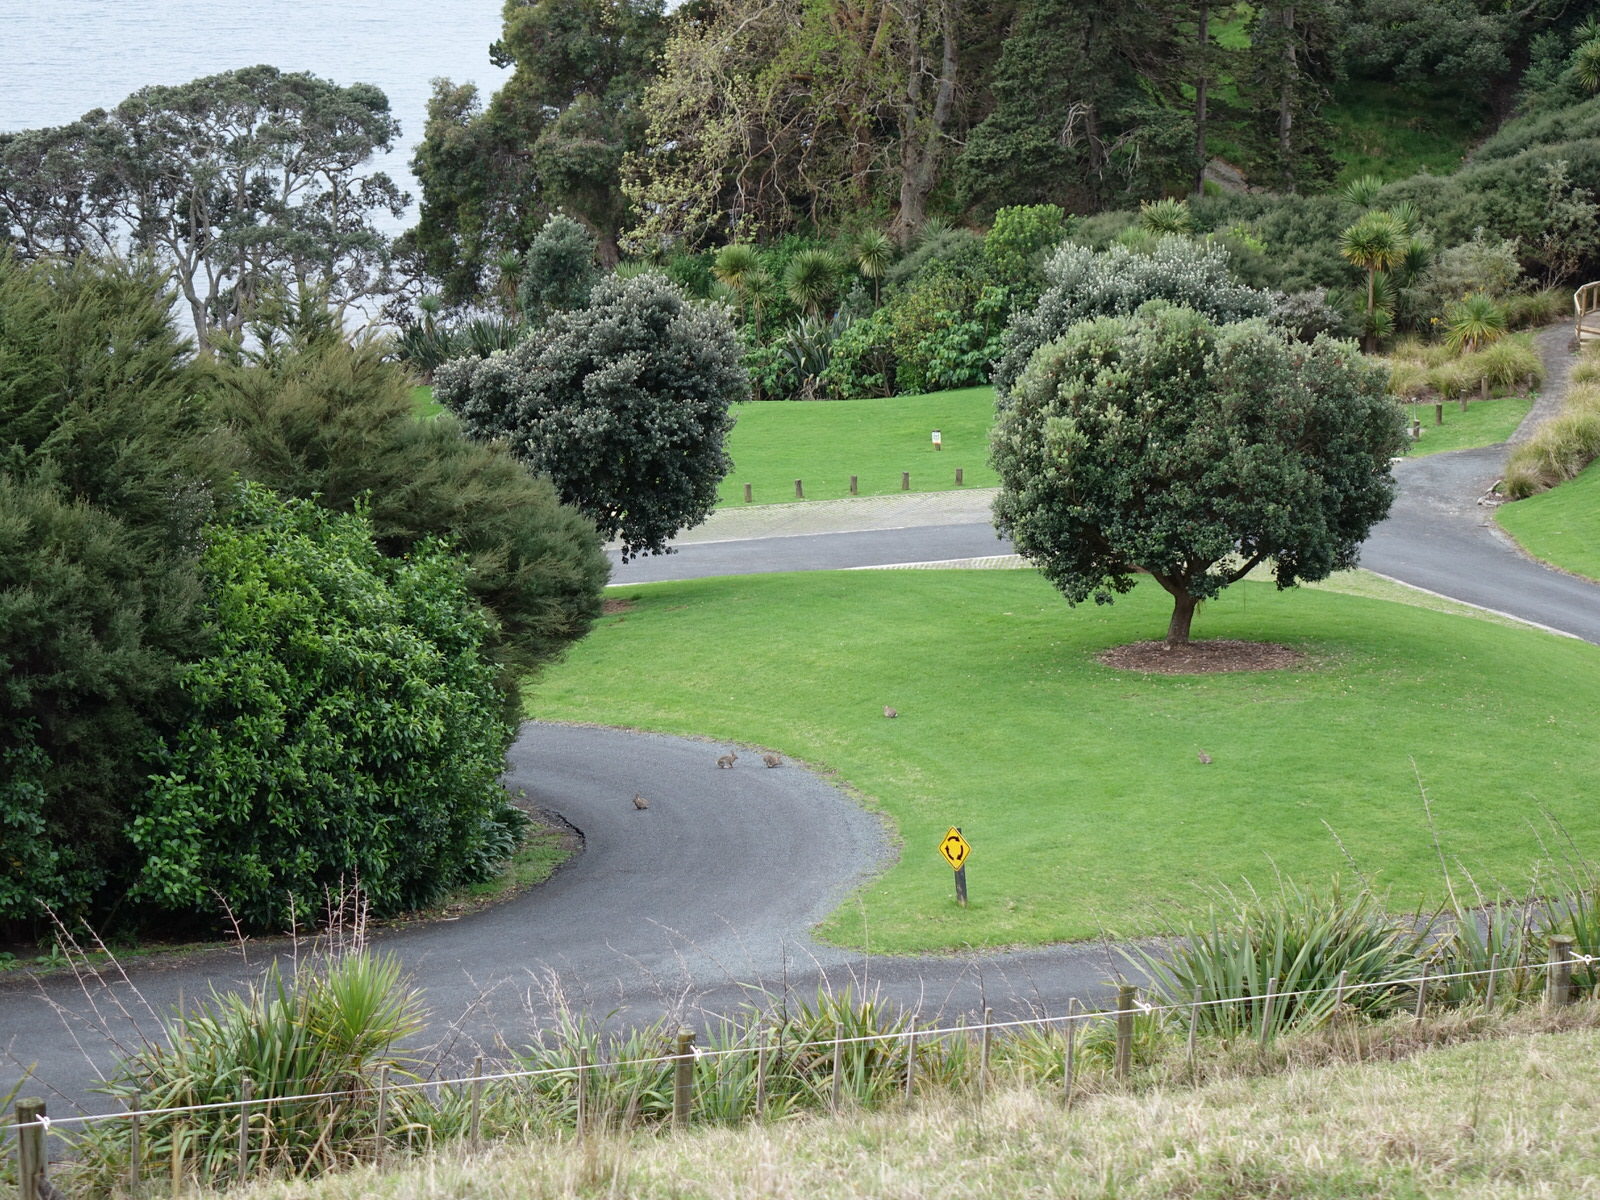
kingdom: Animalia
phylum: Chordata
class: Mammalia
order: Lagomorpha
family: Leporidae
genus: Oryctolagus
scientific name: Oryctolagus cuniculus
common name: European rabbit
